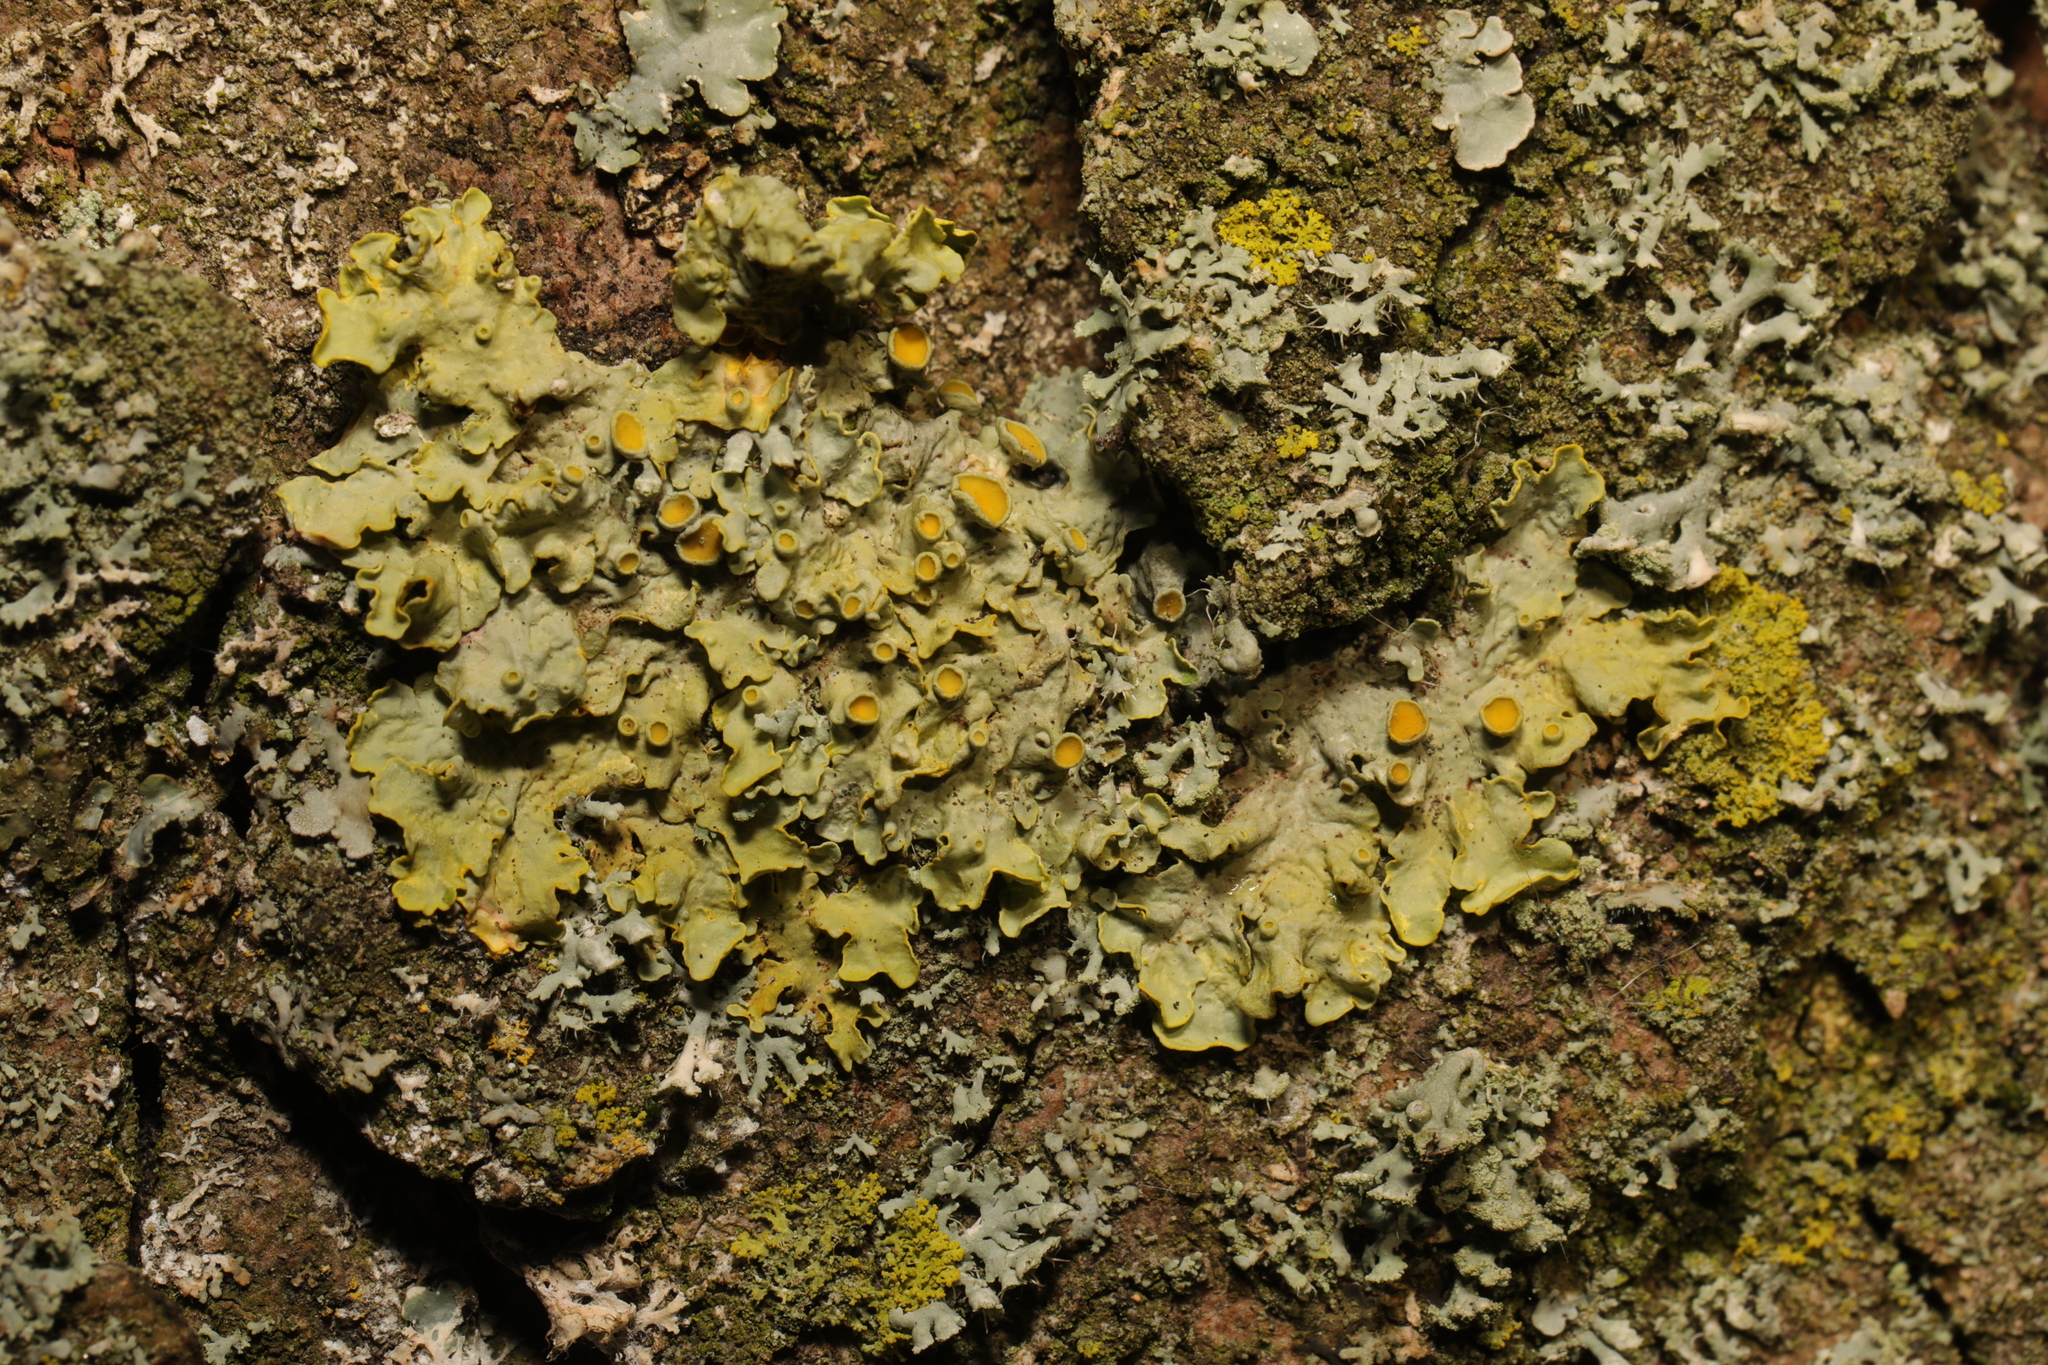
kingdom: Fungi
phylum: Ascomycota
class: Lecanoromycetes
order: Teloschistales
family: Teloschistaceae
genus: Xanthoria
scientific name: Xanthoria parietina
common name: Common orange lichen
